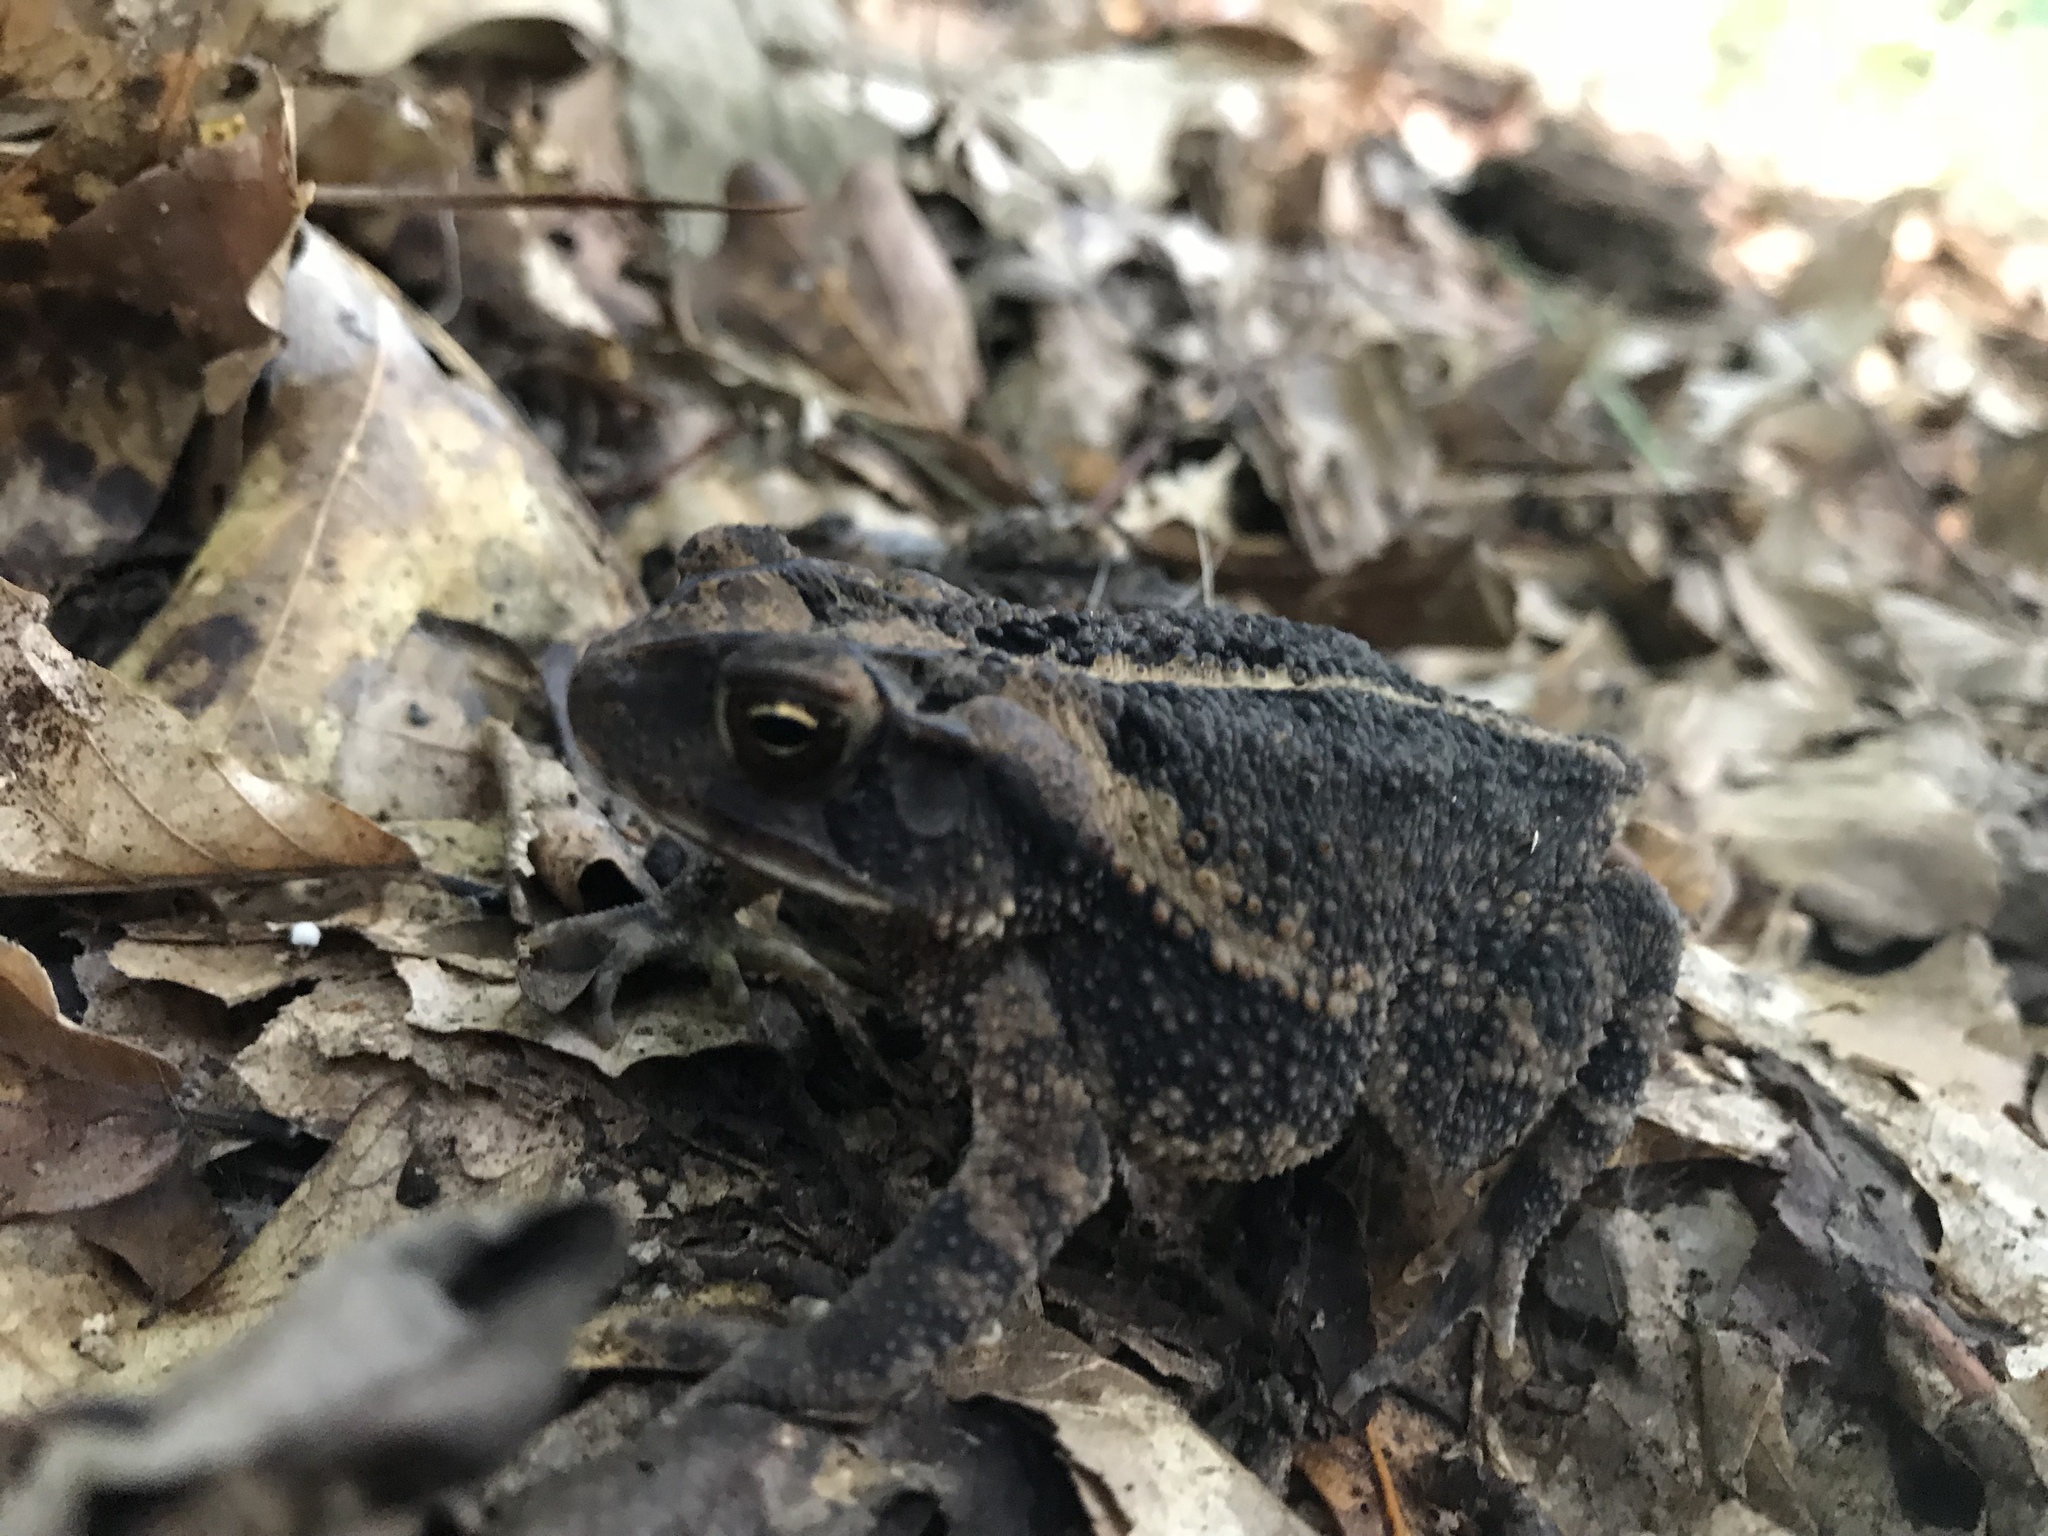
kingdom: Animalia
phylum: Chordata
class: Amphibia
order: Anura
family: Bufonidae
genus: Incilius
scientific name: Incilius nebulifer
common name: Gulf coast toad
